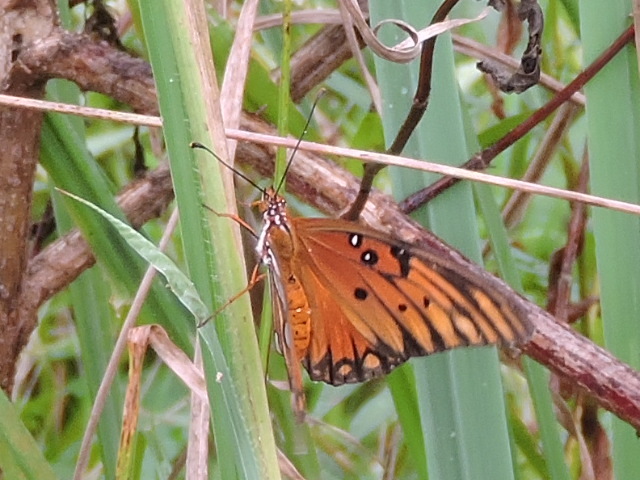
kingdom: Animalia
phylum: Arthropoda
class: Insecta
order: Lepidoptera
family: Nymphalidae
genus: Dione
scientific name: Dione vanillae
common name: Gulf fritillary
